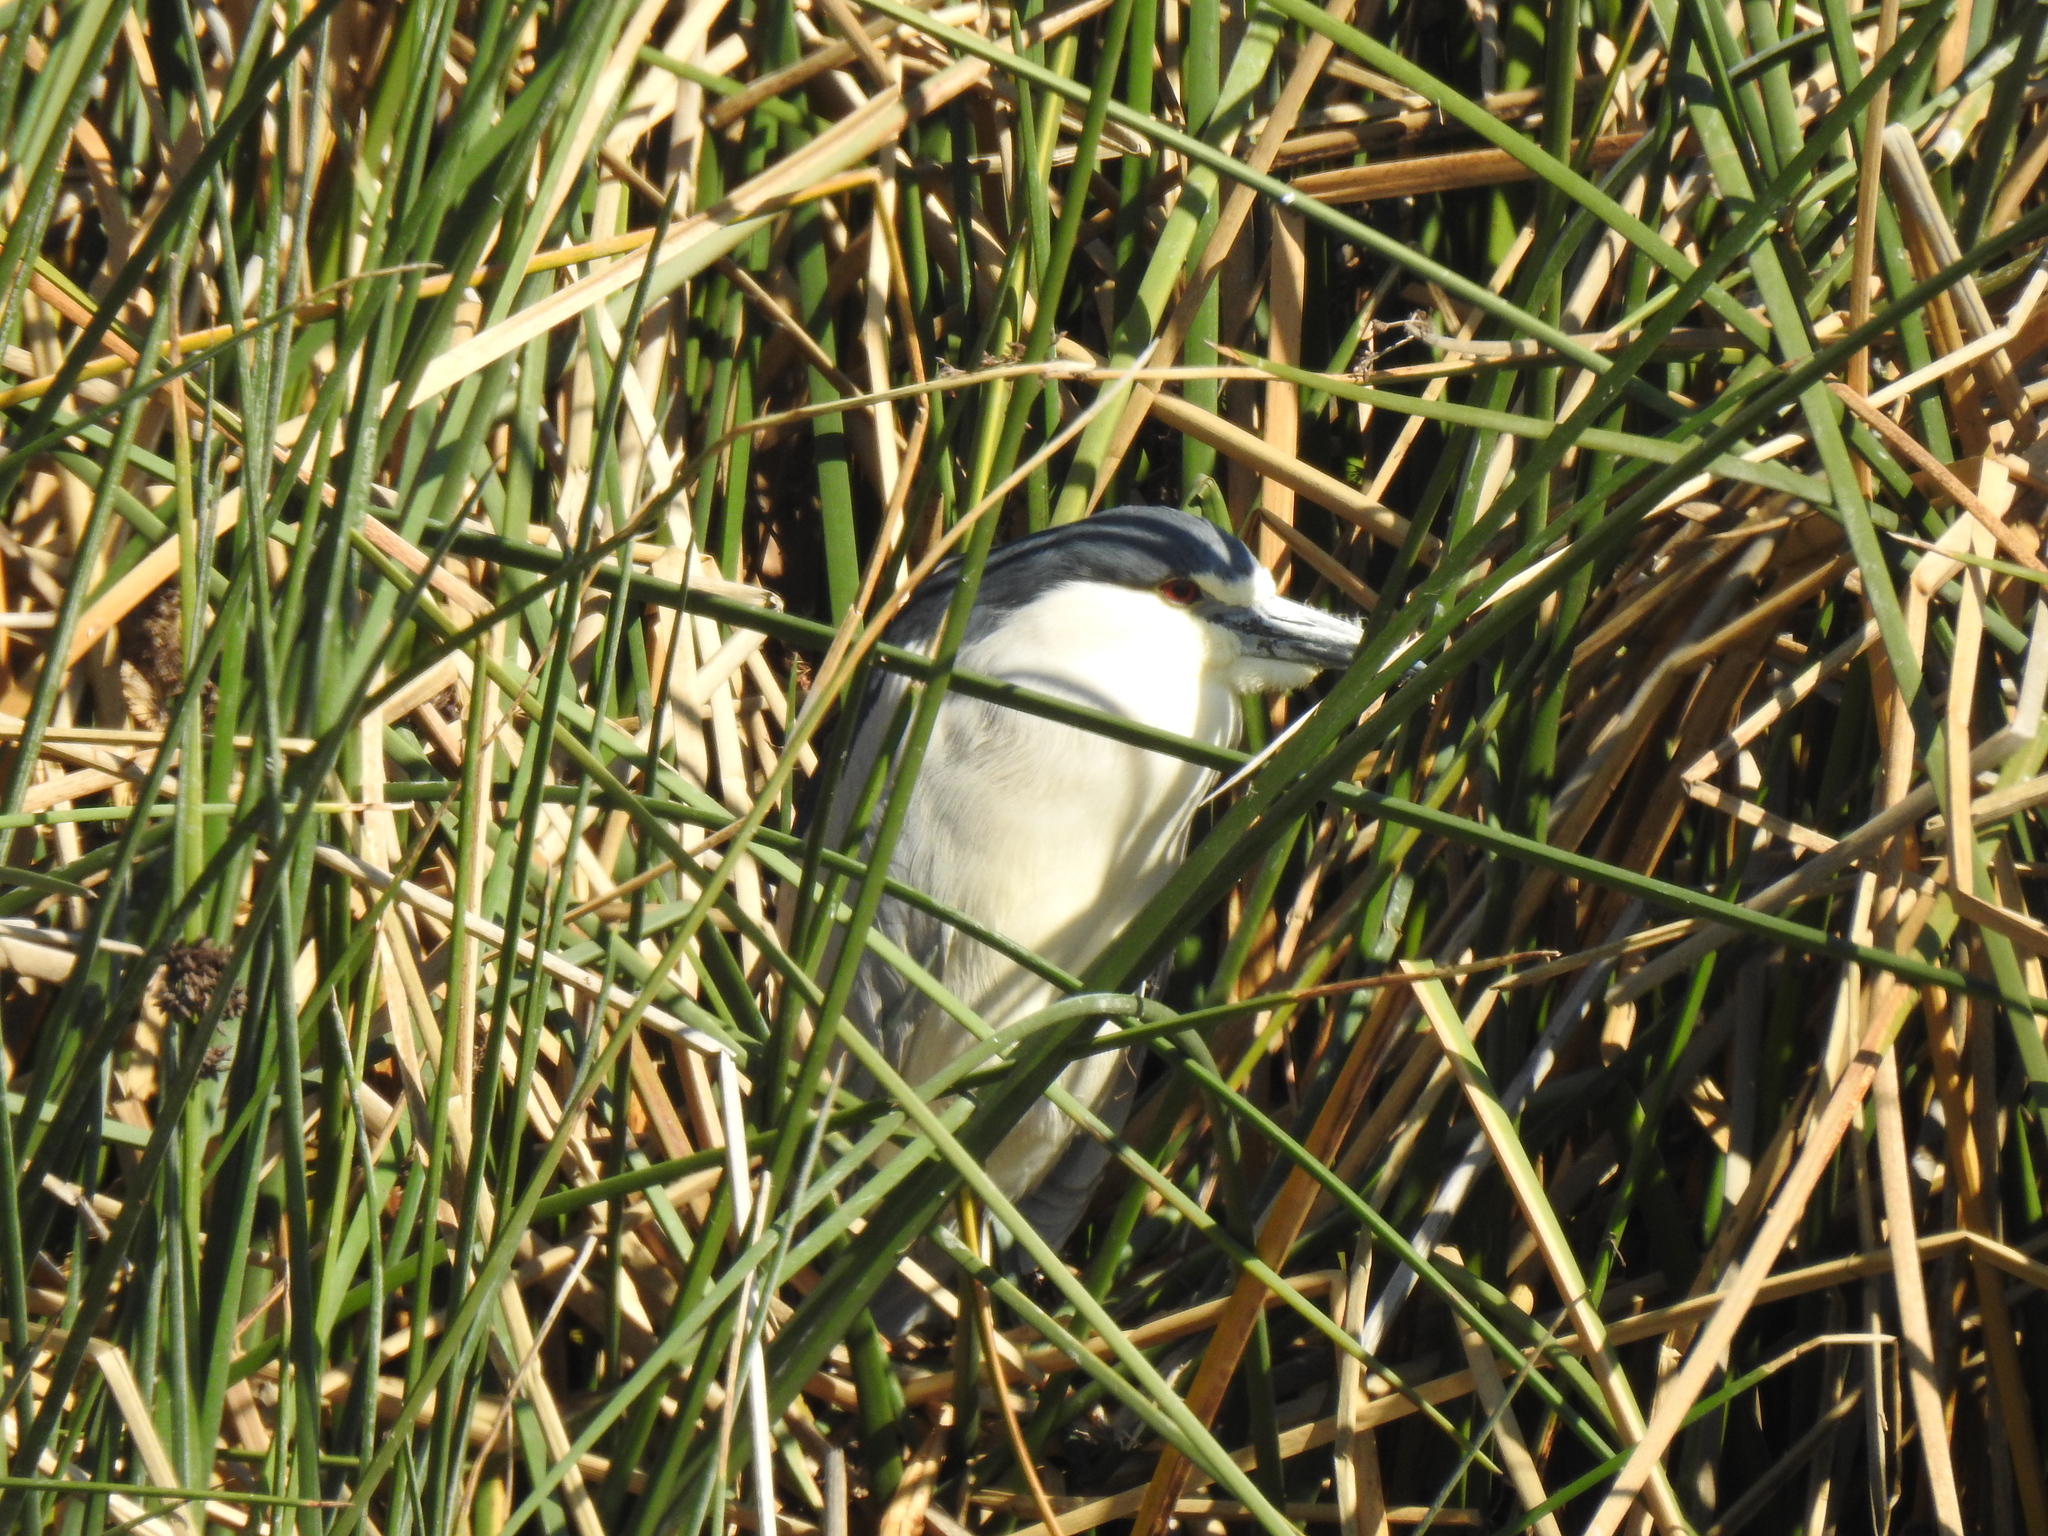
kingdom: Animalia
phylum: Chordata
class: Aves
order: Pelecaniformes
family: Ardeidae
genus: Nycticorax
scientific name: Nycticorax nycticorax
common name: Black-crowned night heron
